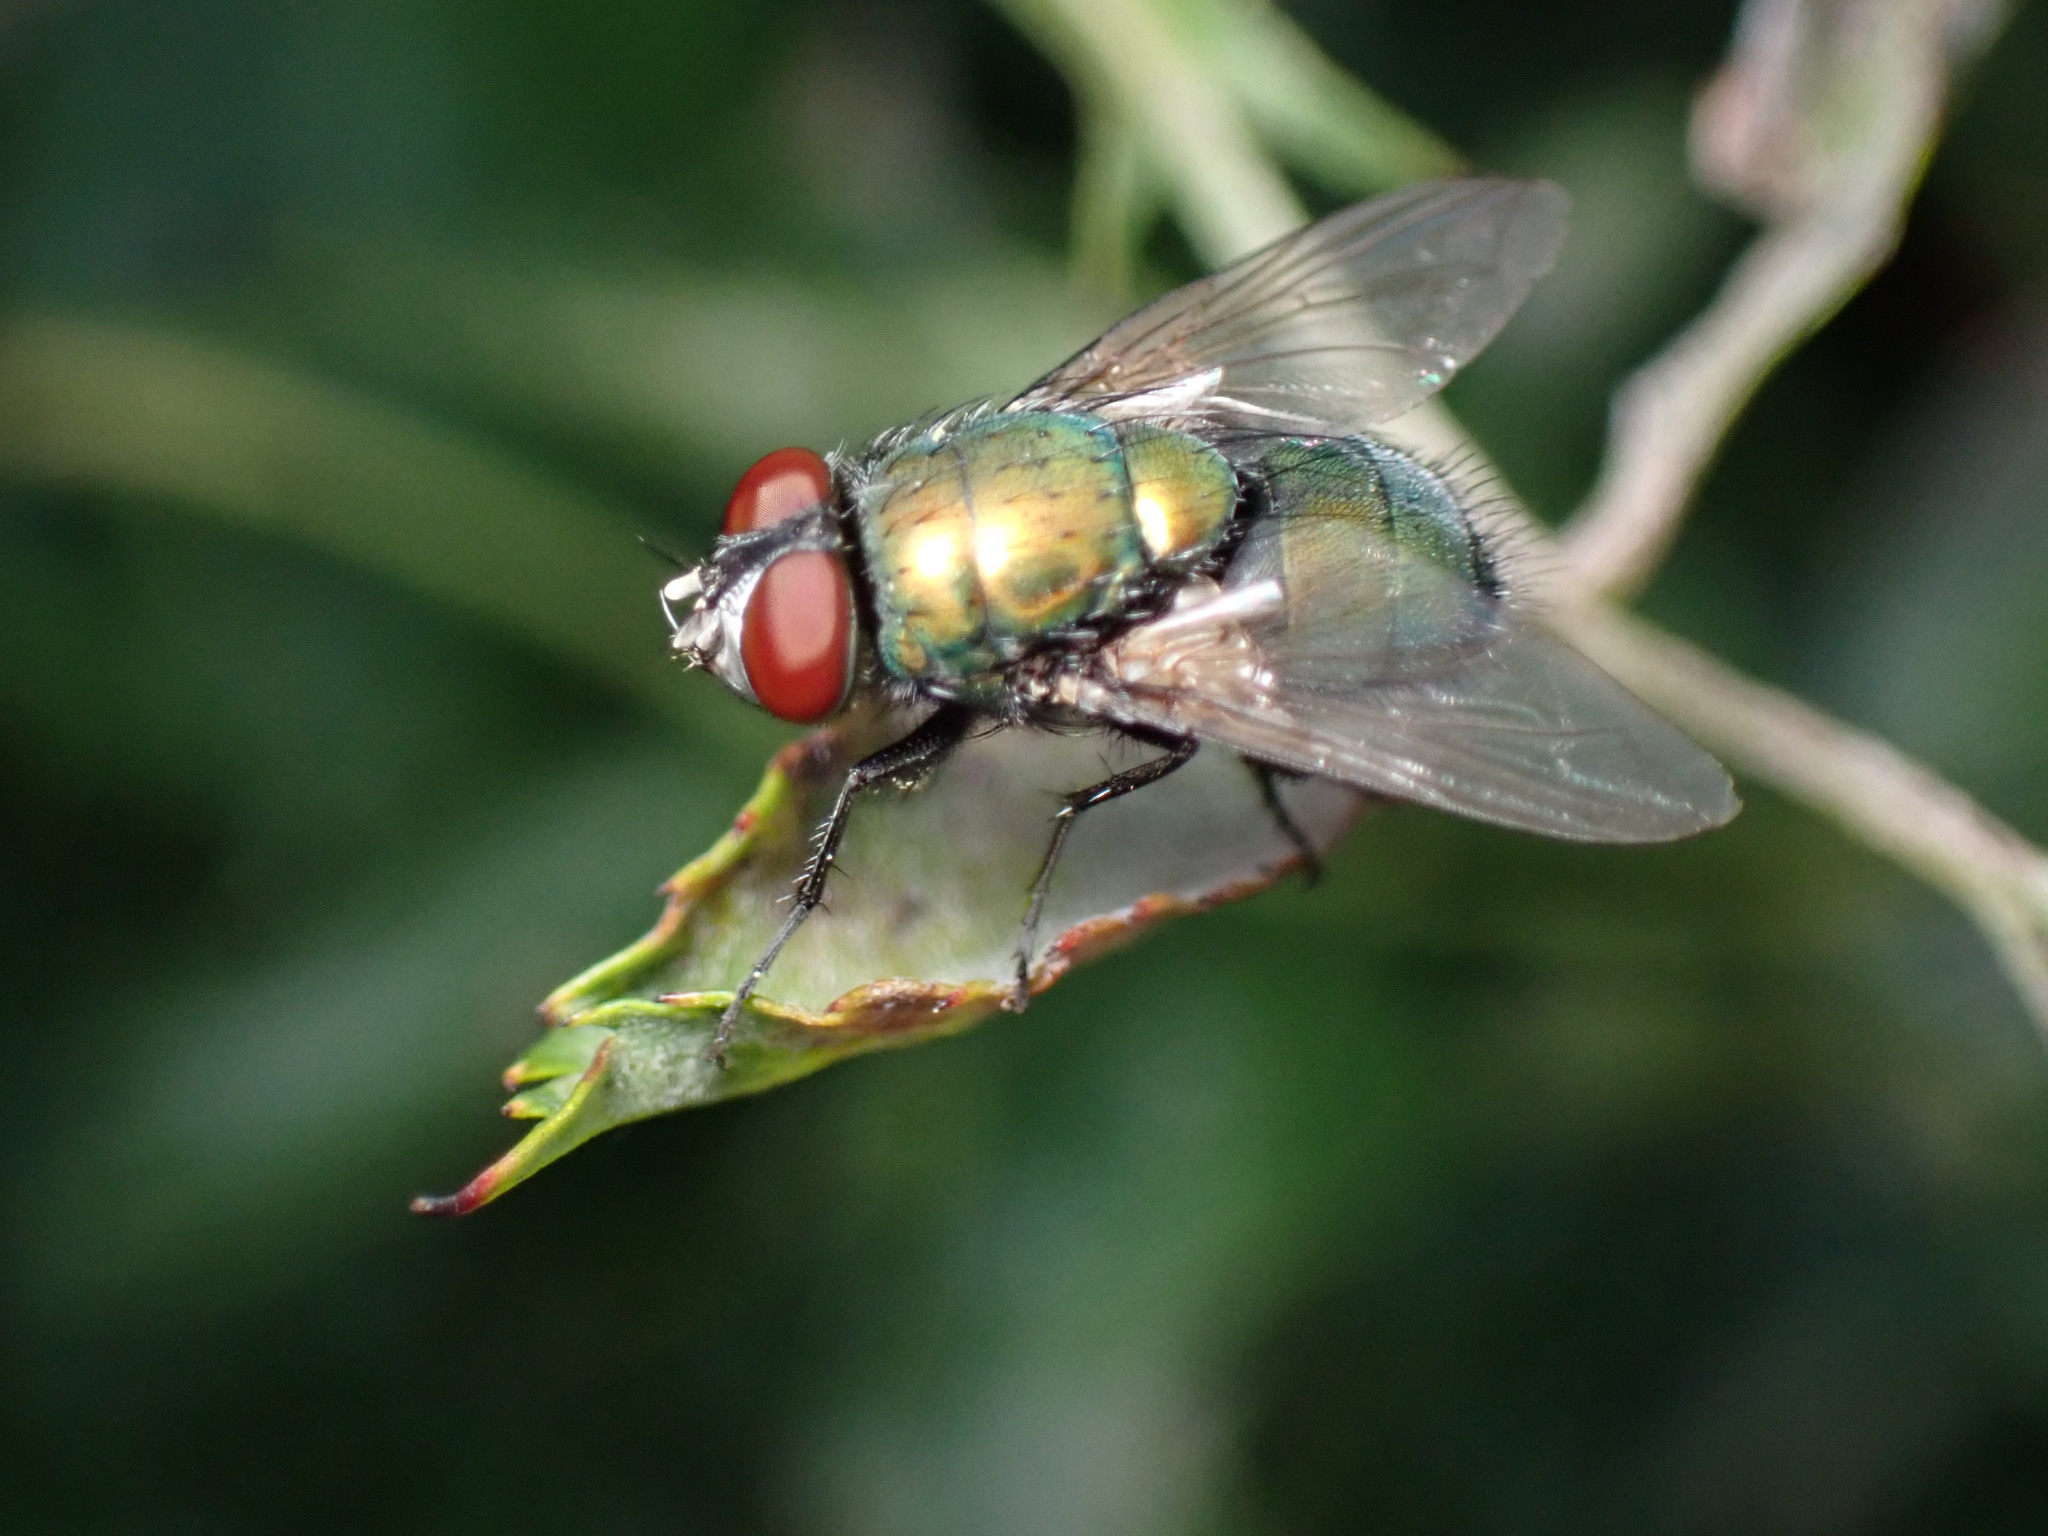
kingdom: Animalia
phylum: Arthropoda
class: Insecta
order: Diptera
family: Calliphoridae
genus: Lucilia
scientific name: Lucilia sericata
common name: Blow fly
